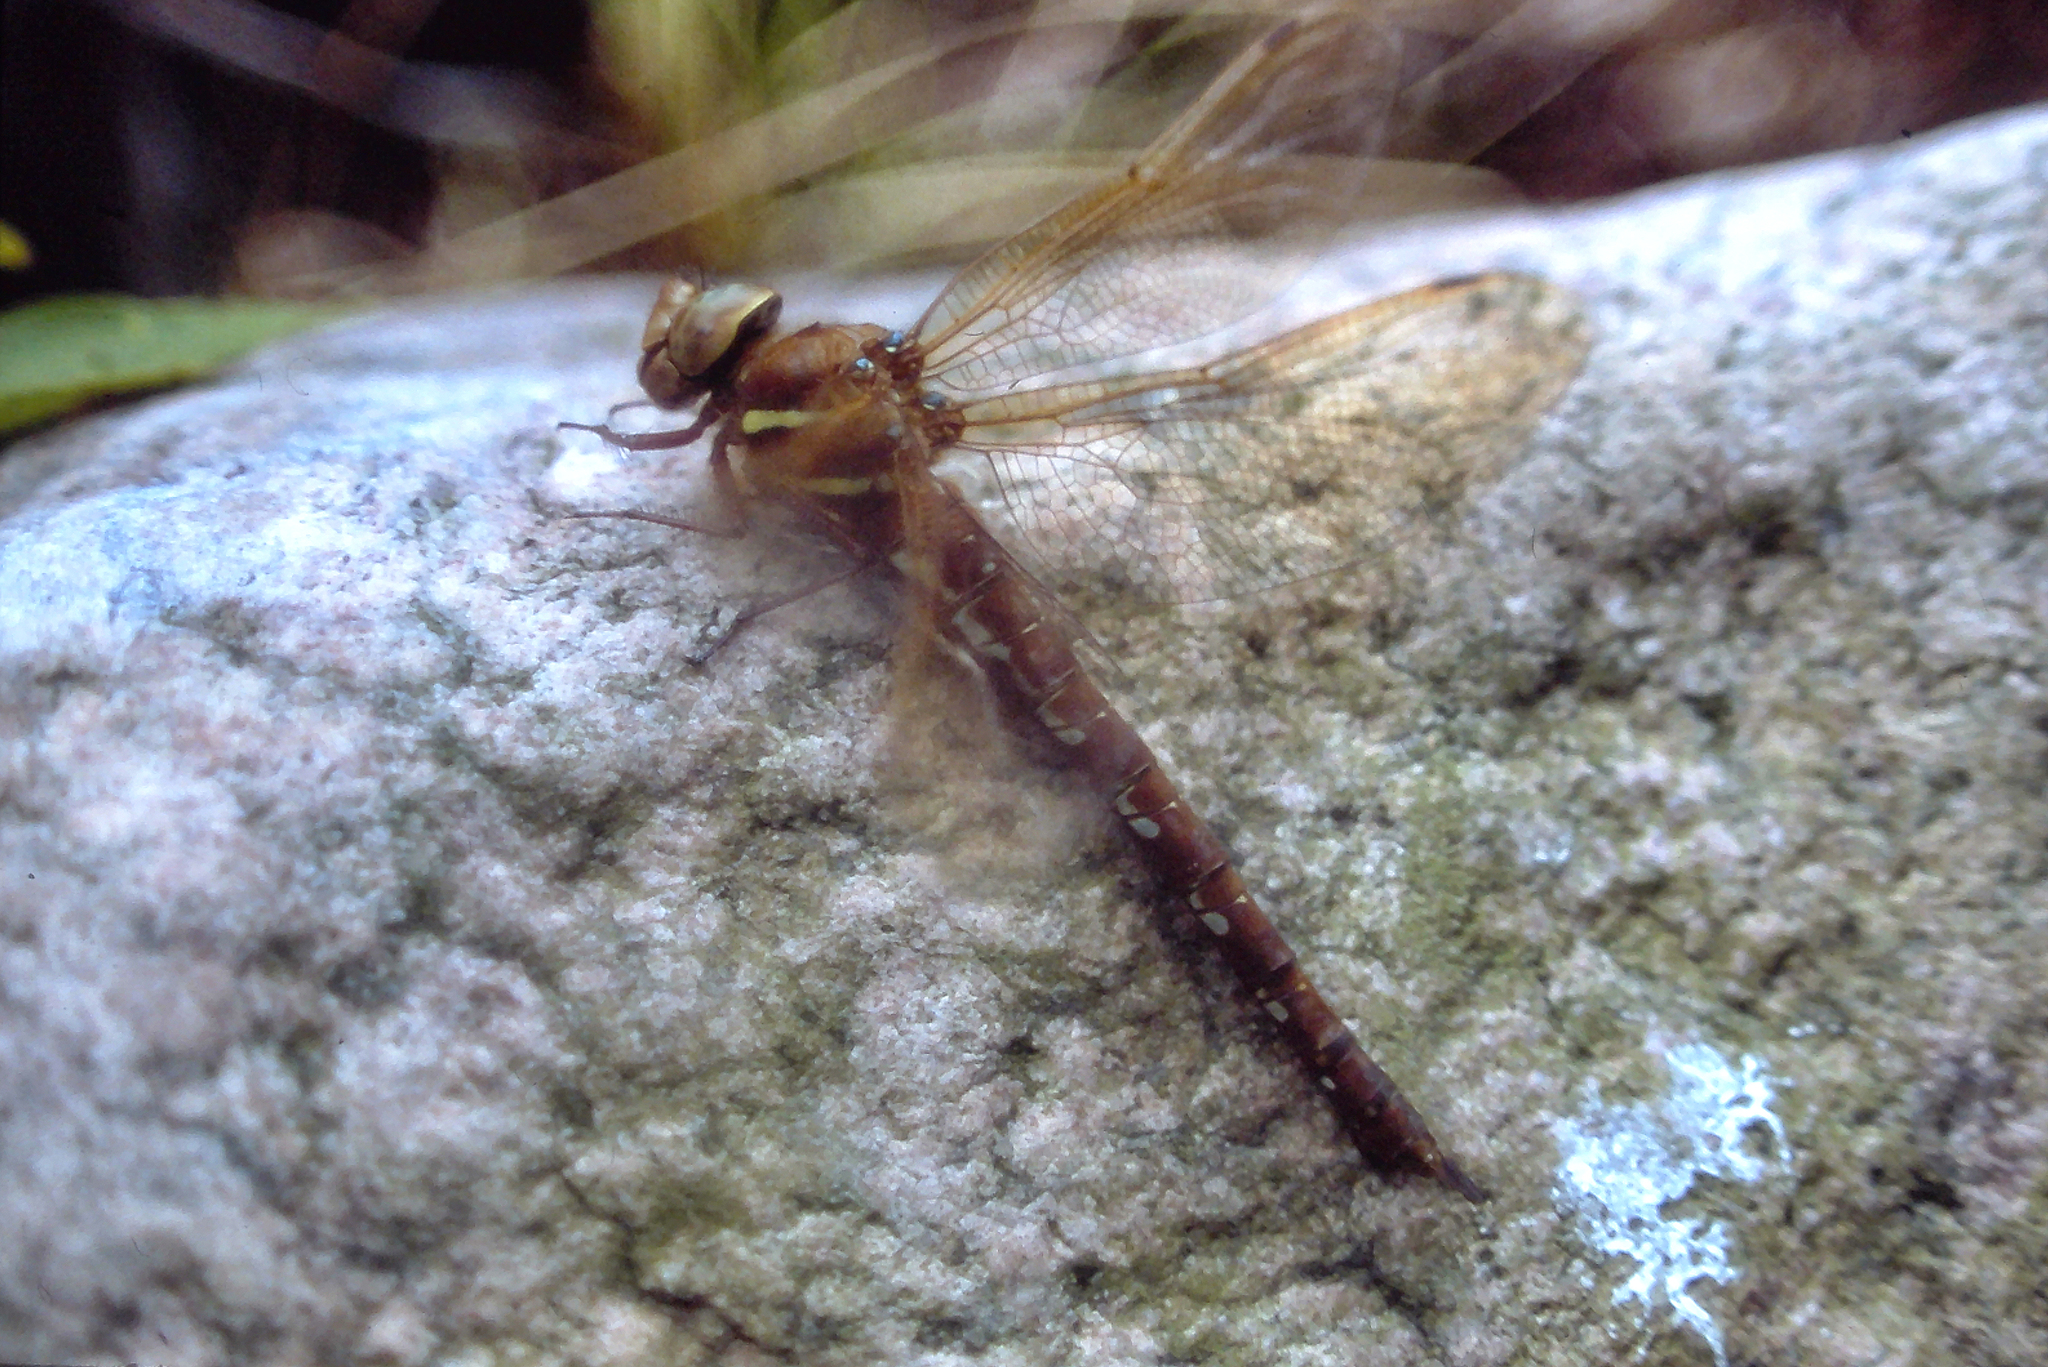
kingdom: Animalia
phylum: Arthropoda
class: Insecta
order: Odonata
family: Aeshnidae
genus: Aeshna
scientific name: Aeshna grandis
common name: Brown hawker
